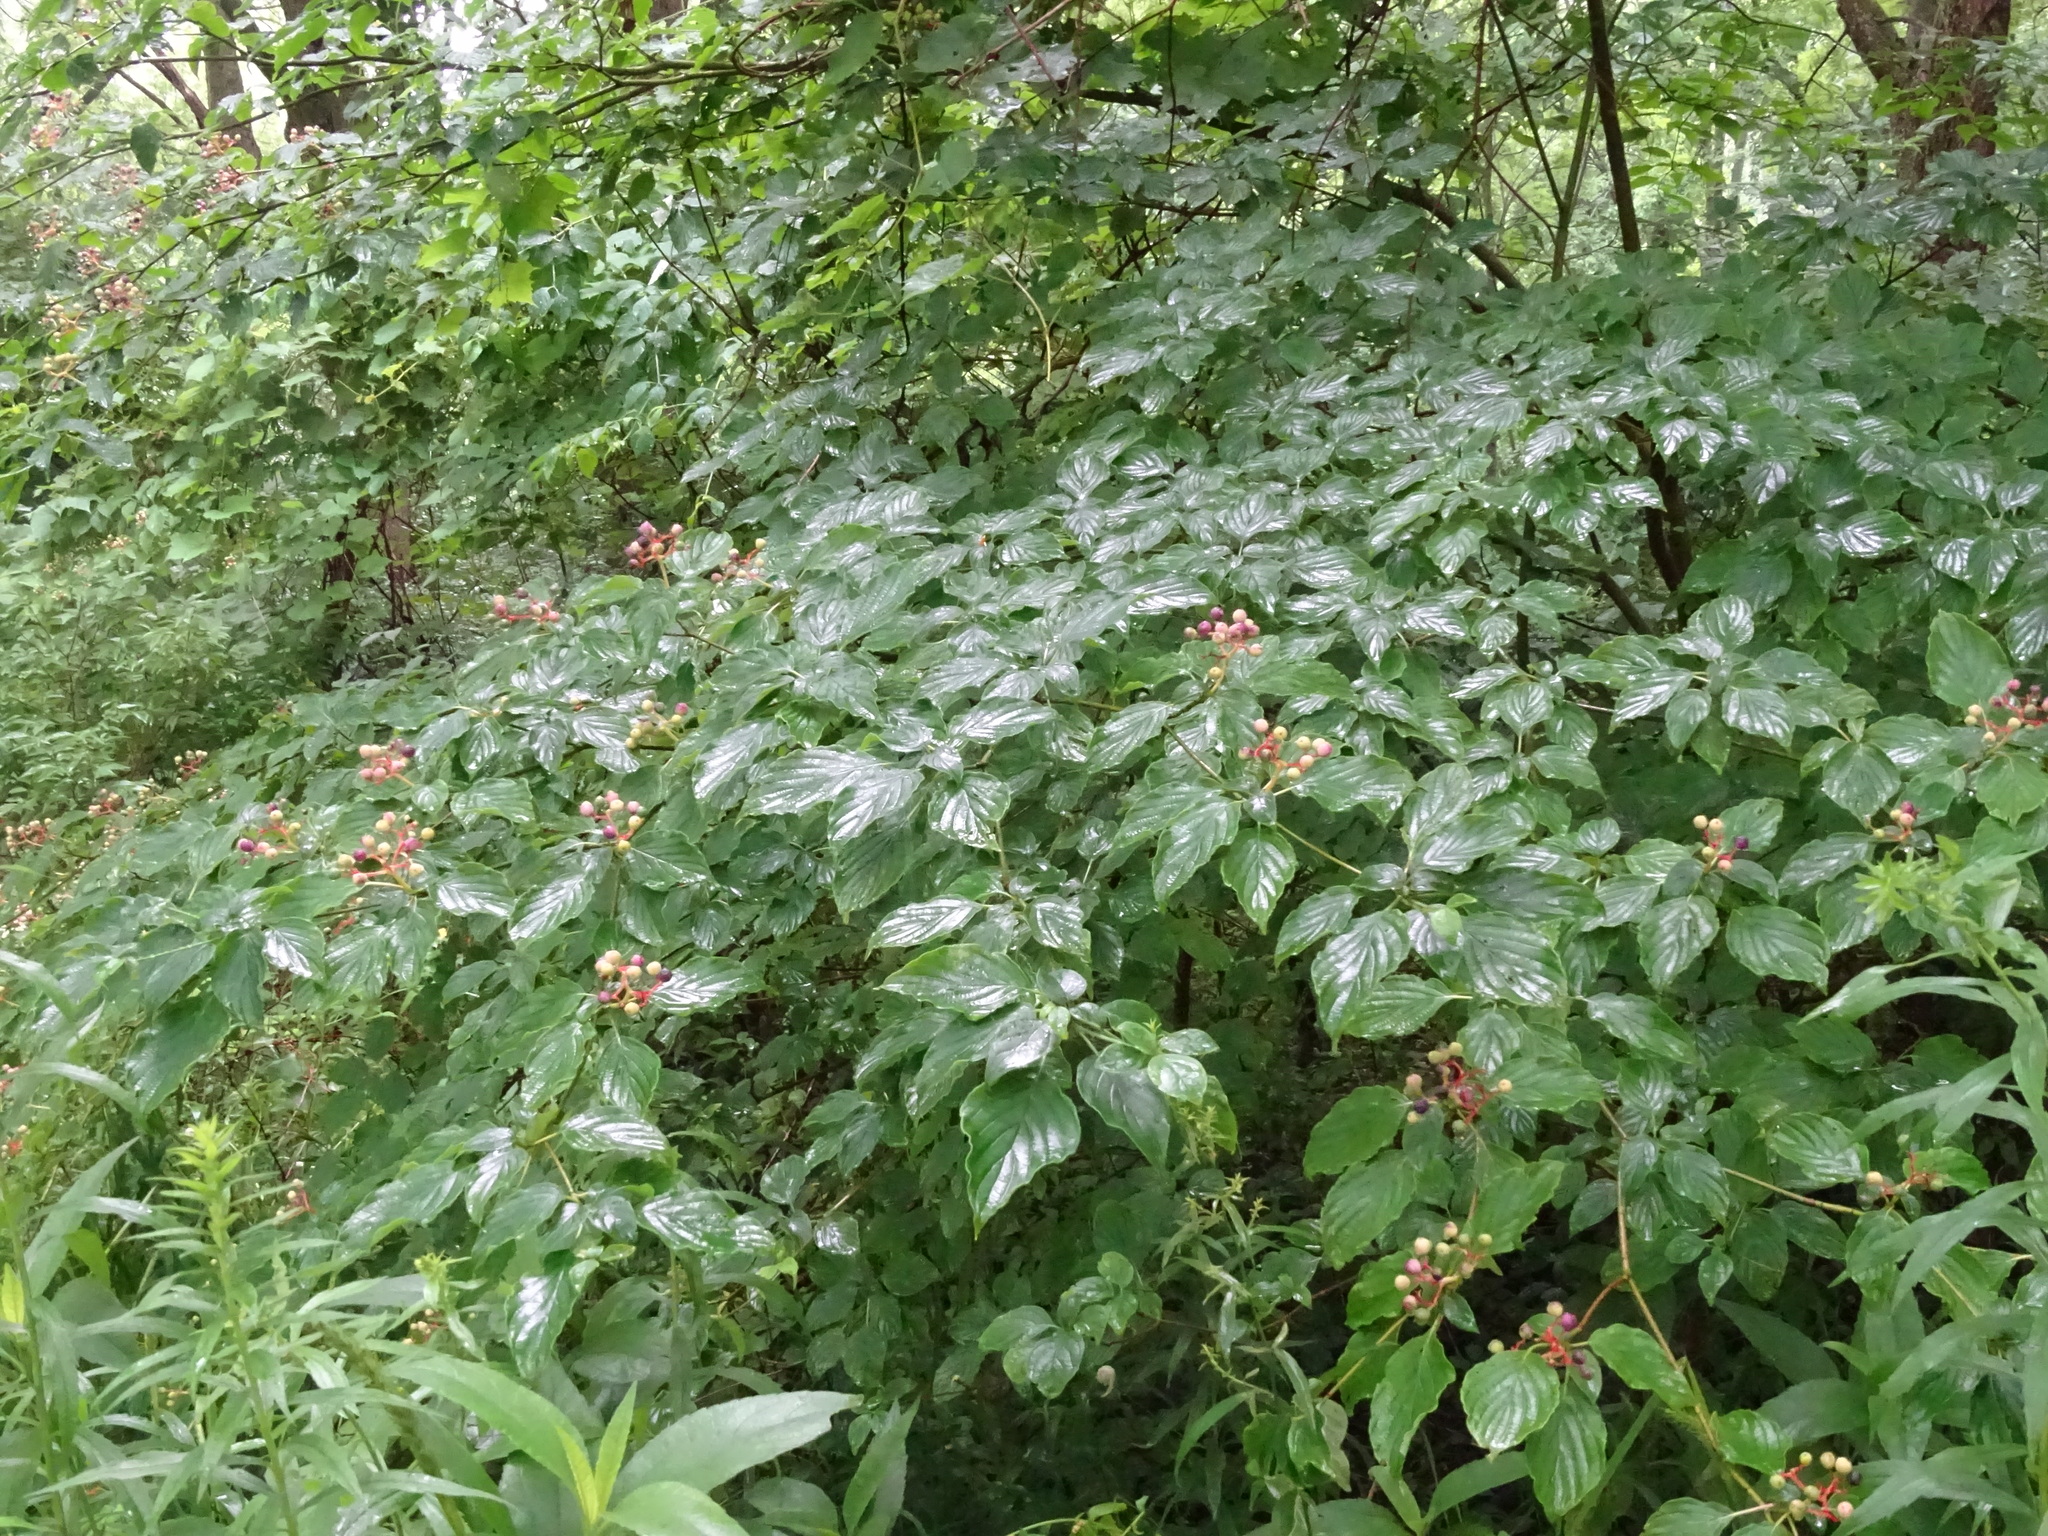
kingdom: Plantae
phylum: Tracheophyta
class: Magnoliopsida
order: Cornales
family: Cornaceae
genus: Cornus
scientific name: Cornus alternifolia
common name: Pagoda dogwood
